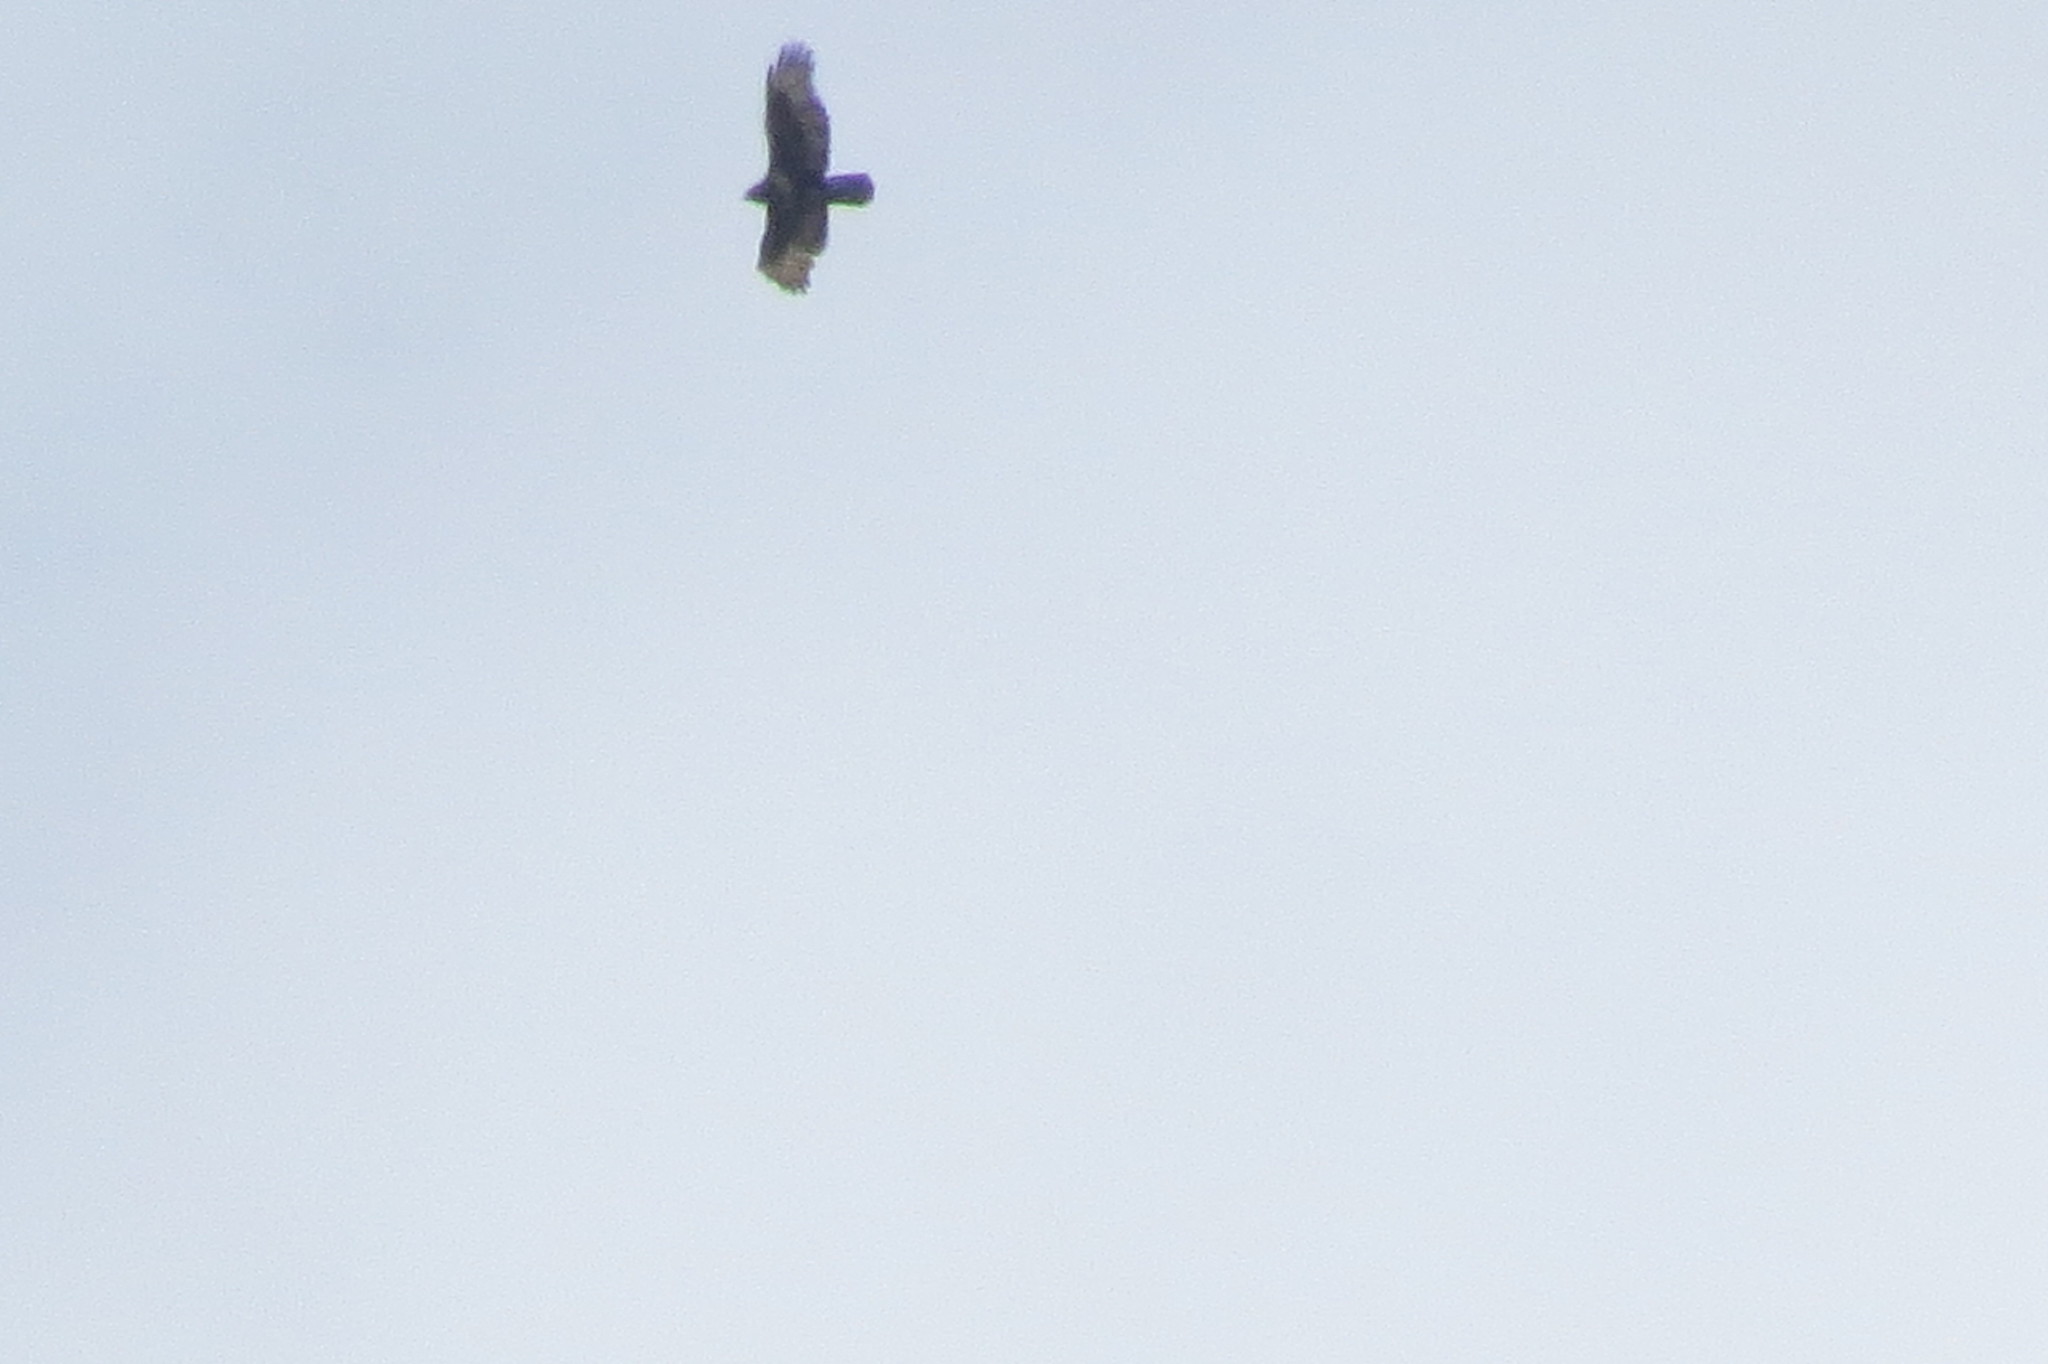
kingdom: Animalia
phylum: Chordata
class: Aves
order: Accipitriformes
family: Accipitridae
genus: Buteo
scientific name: Buteo buteo
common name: Common buzzard
